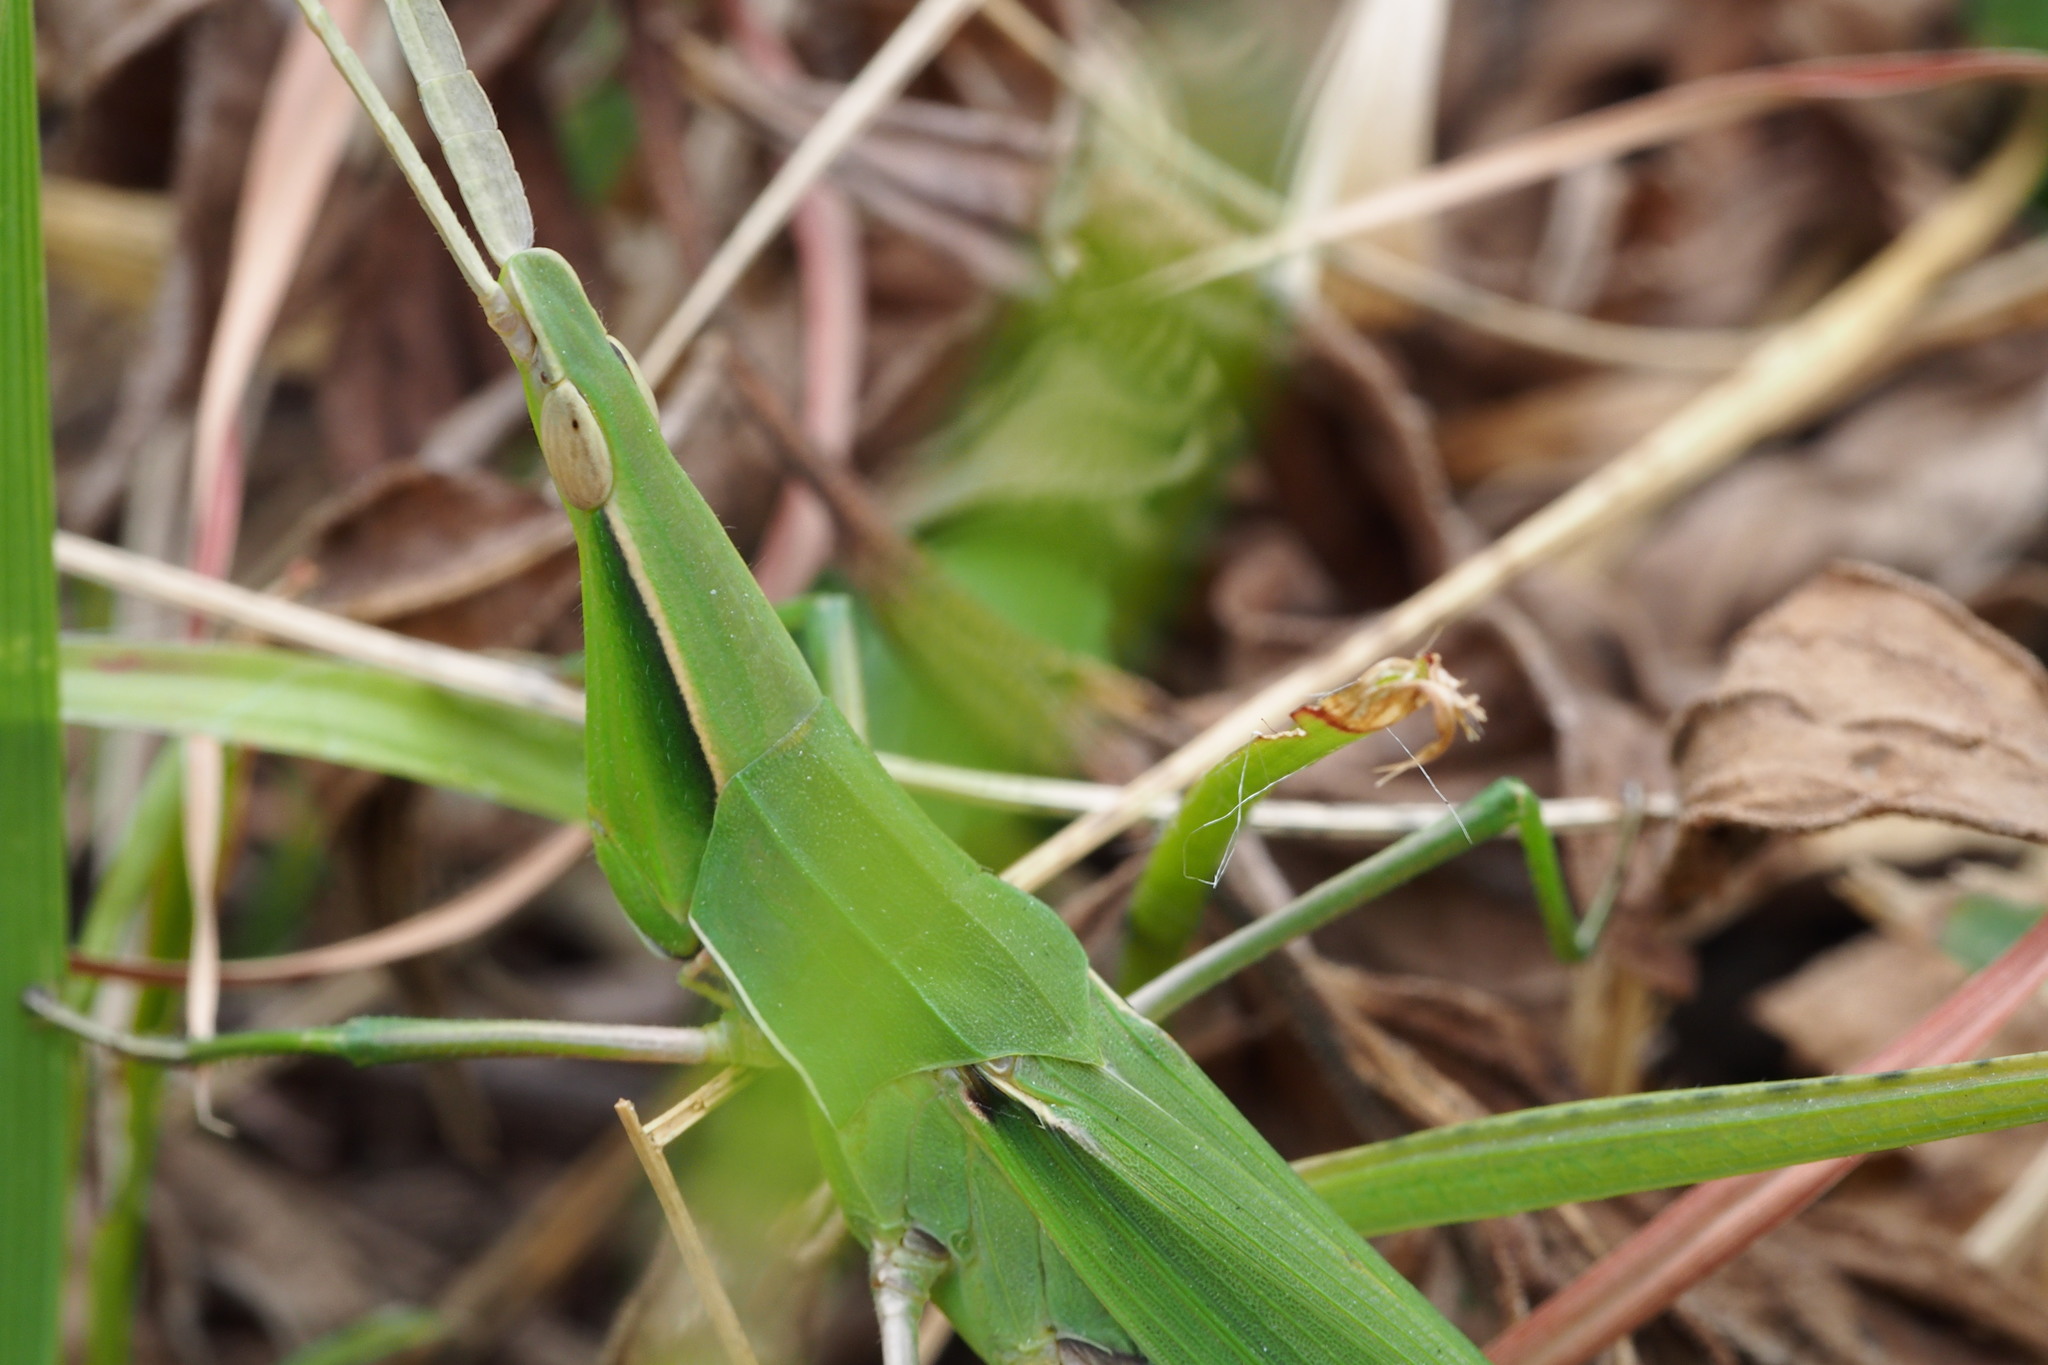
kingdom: Animalia
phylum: Arthropoda
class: Insecta
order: Orthoptera
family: Acrididae
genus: Acrida
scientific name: Acrida cinerea
